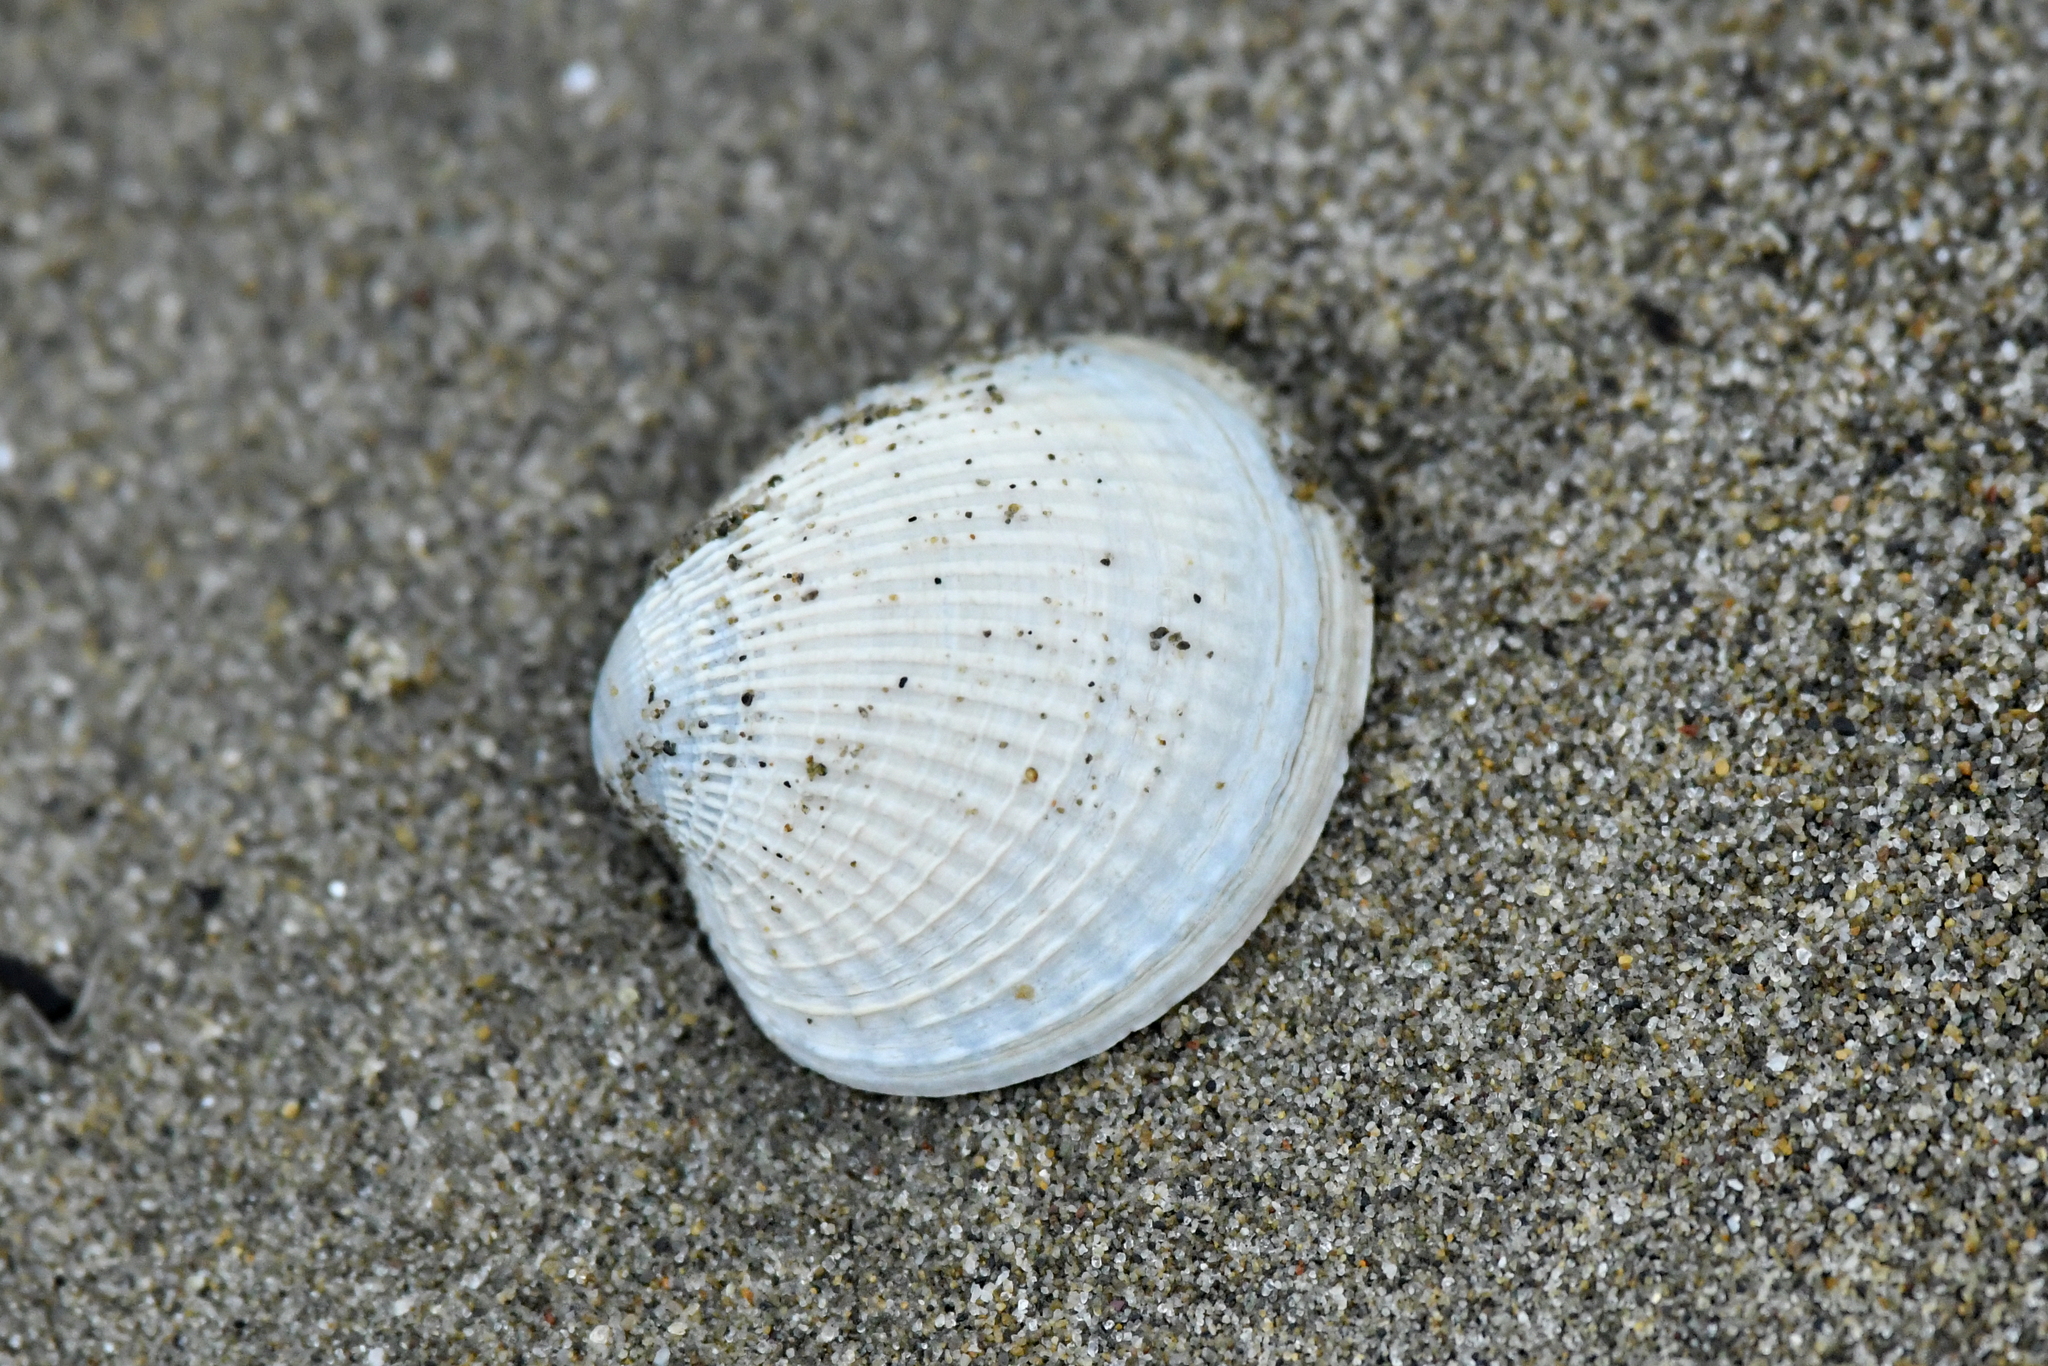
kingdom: Animalia
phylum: Mollusca
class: Bivalvia
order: Venerida
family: Veneridae
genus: Austrovenus
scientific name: Austrovenus stutchburyi
